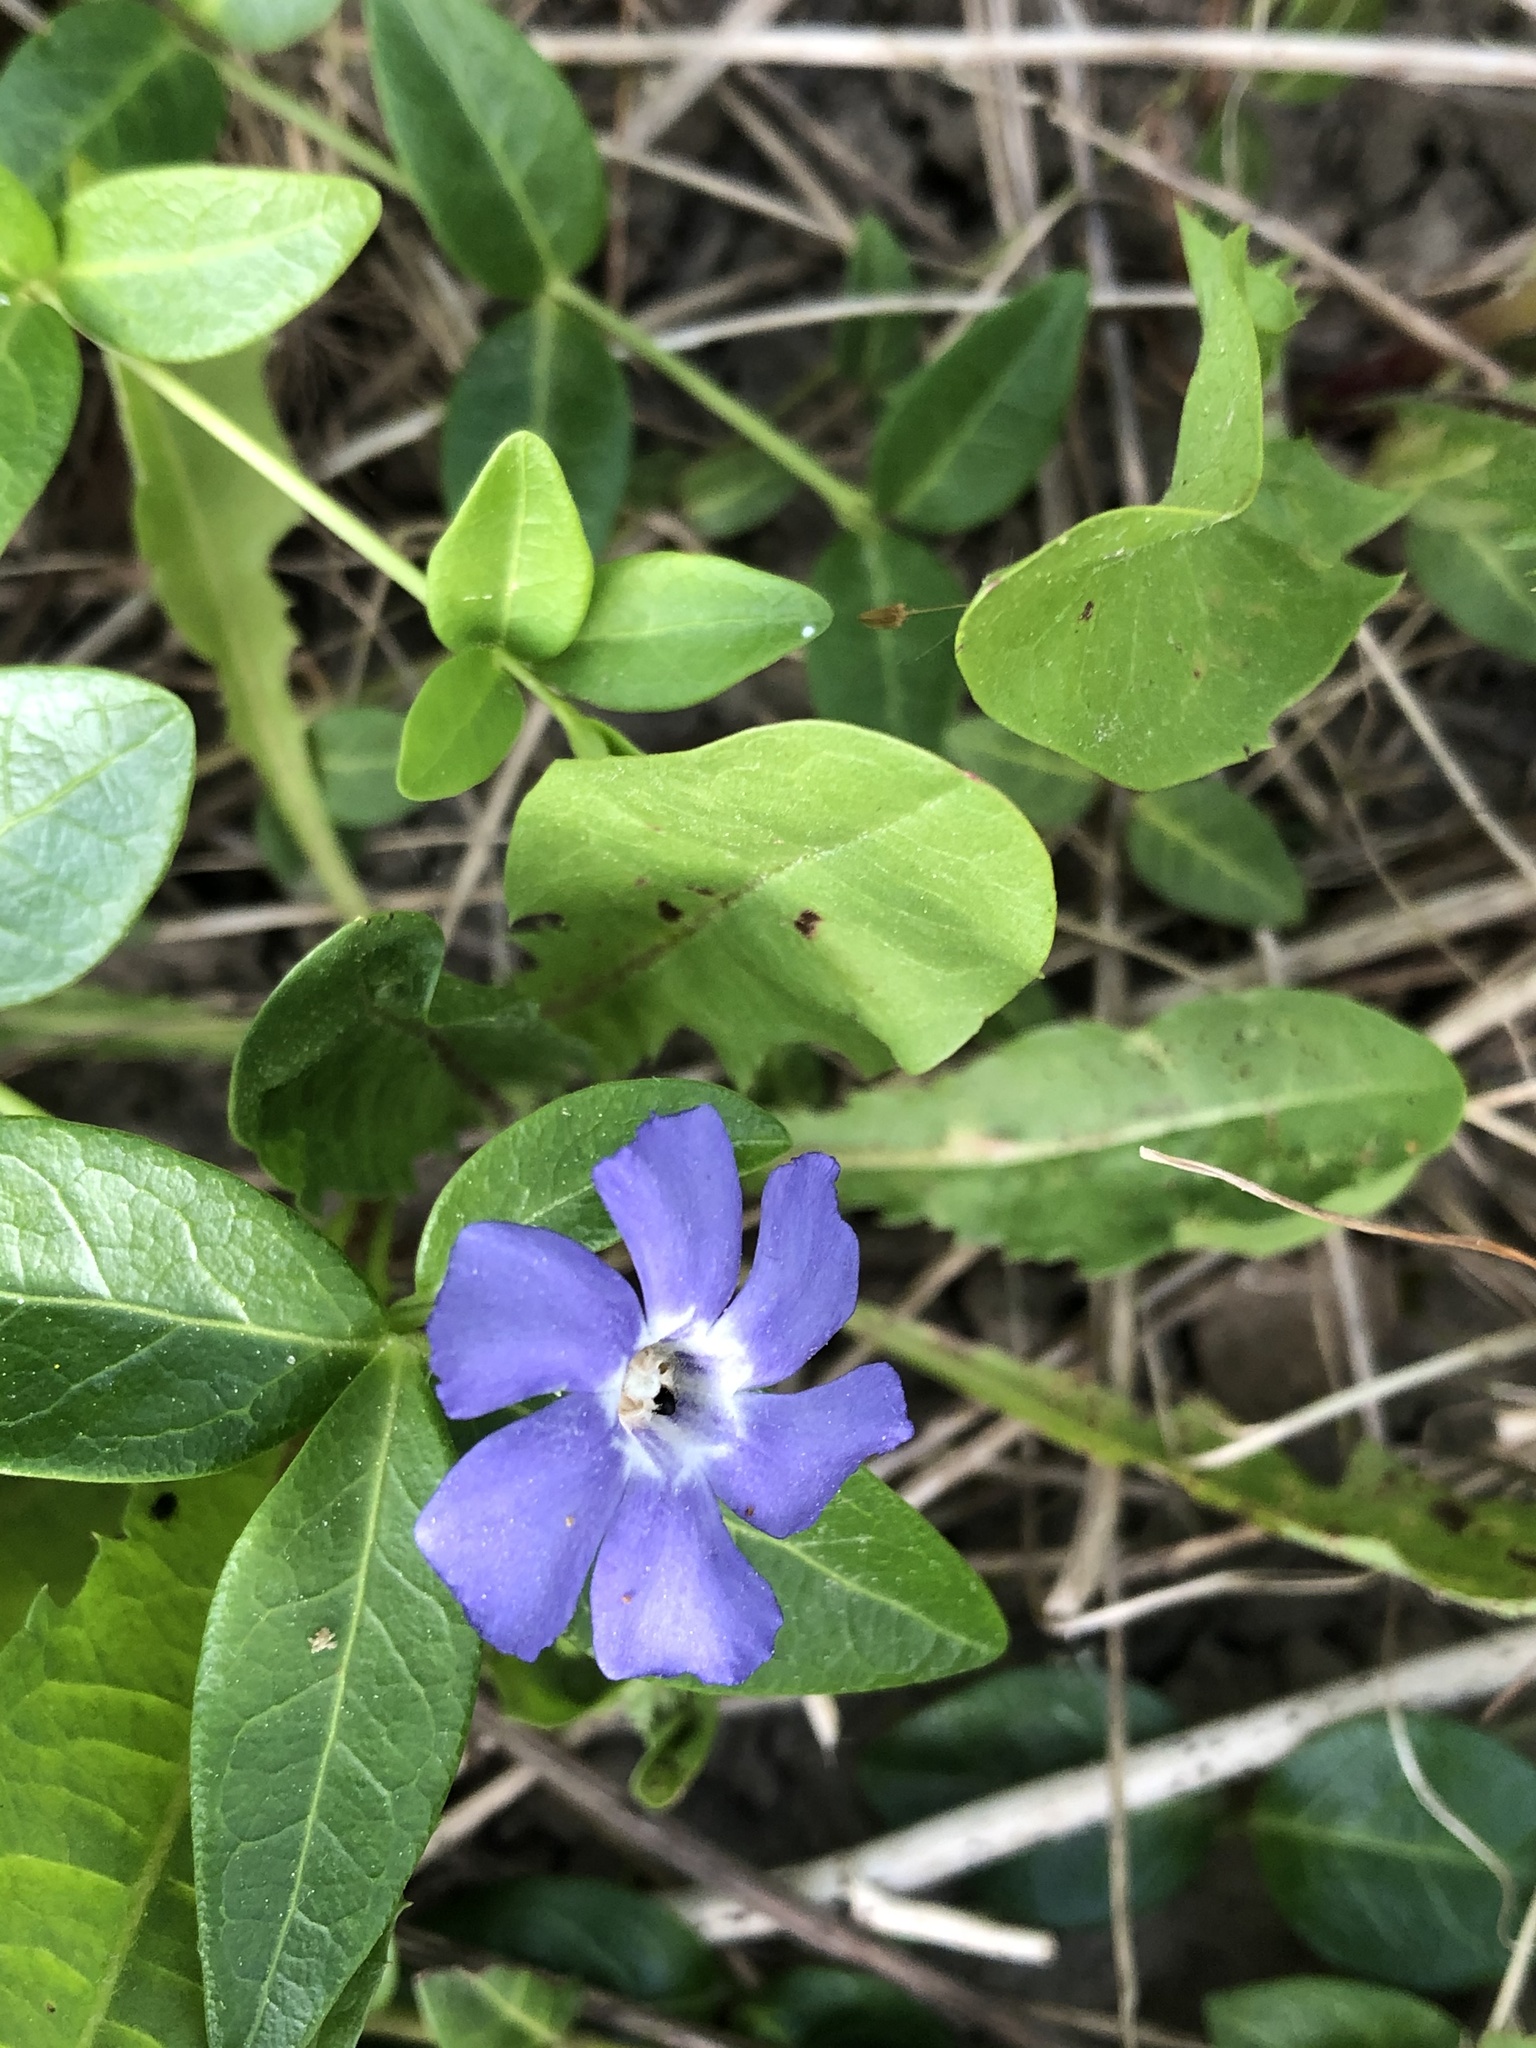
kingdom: Plantae
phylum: Tracheophyta
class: Magnoliopsida
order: Gentianales
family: Apocynaceae
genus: Vinca
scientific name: Vinca minor
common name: Lesser periwinkle
